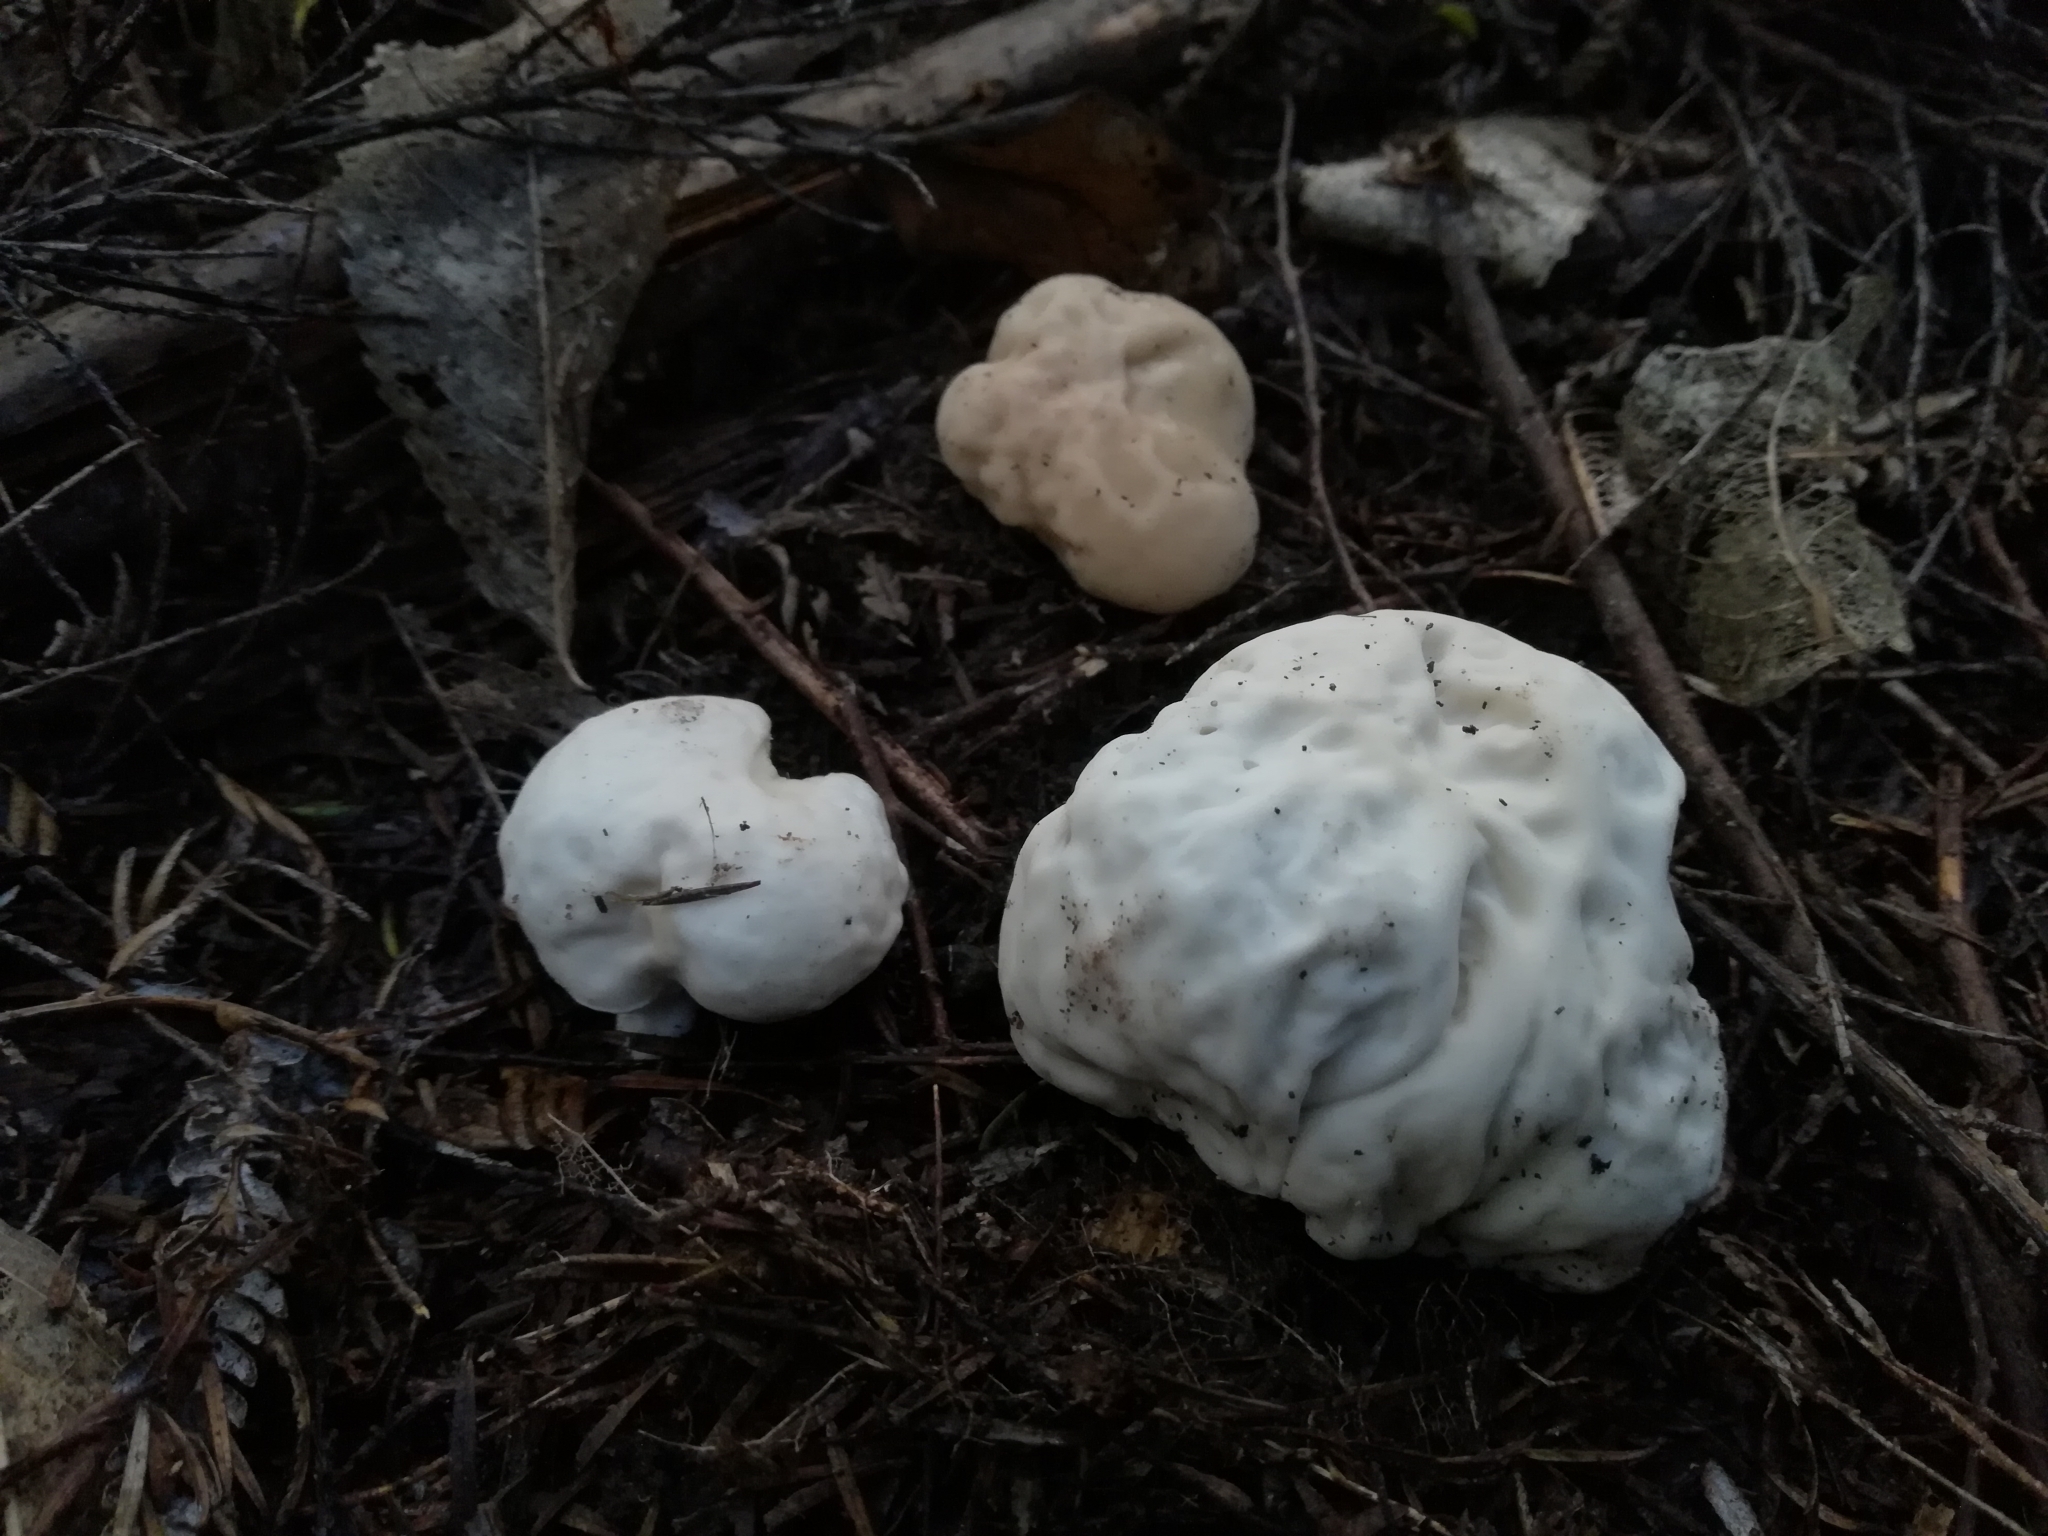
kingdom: Fungi
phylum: Basidiomycota
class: Agaricomycetes
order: Boletales
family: Boletaceae
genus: Boletus
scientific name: Boletus semigastroideus
